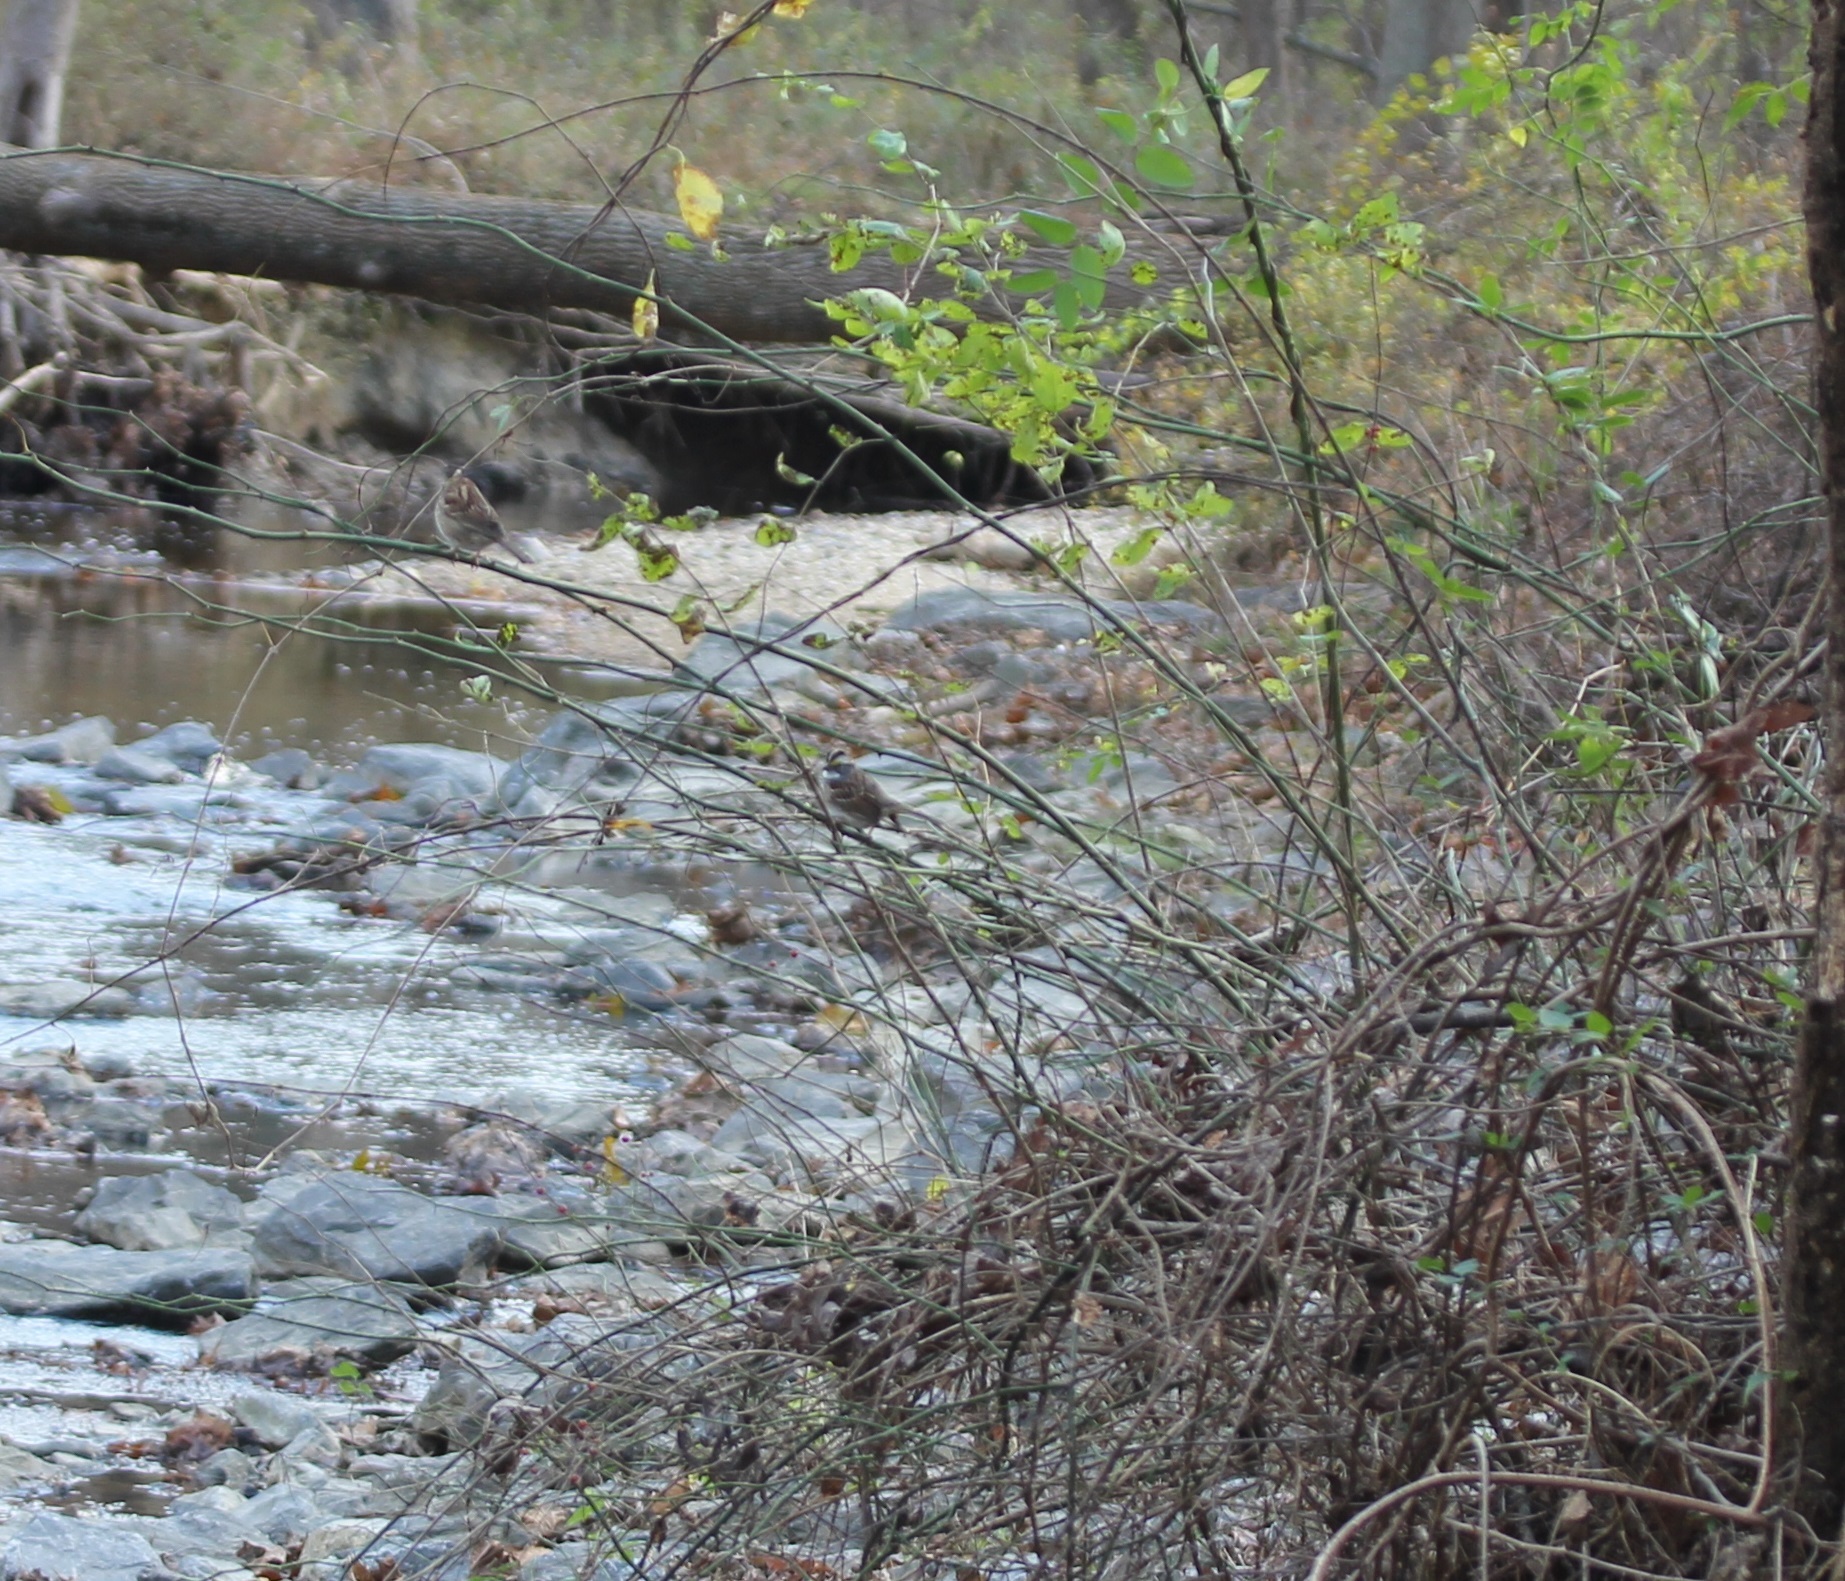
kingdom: Animalia
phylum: Chordata
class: Aves
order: Passeriformes
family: Passerellidae
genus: Zonotrichia
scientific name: Zonotrichia albicollis
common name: White-throated sparrow
